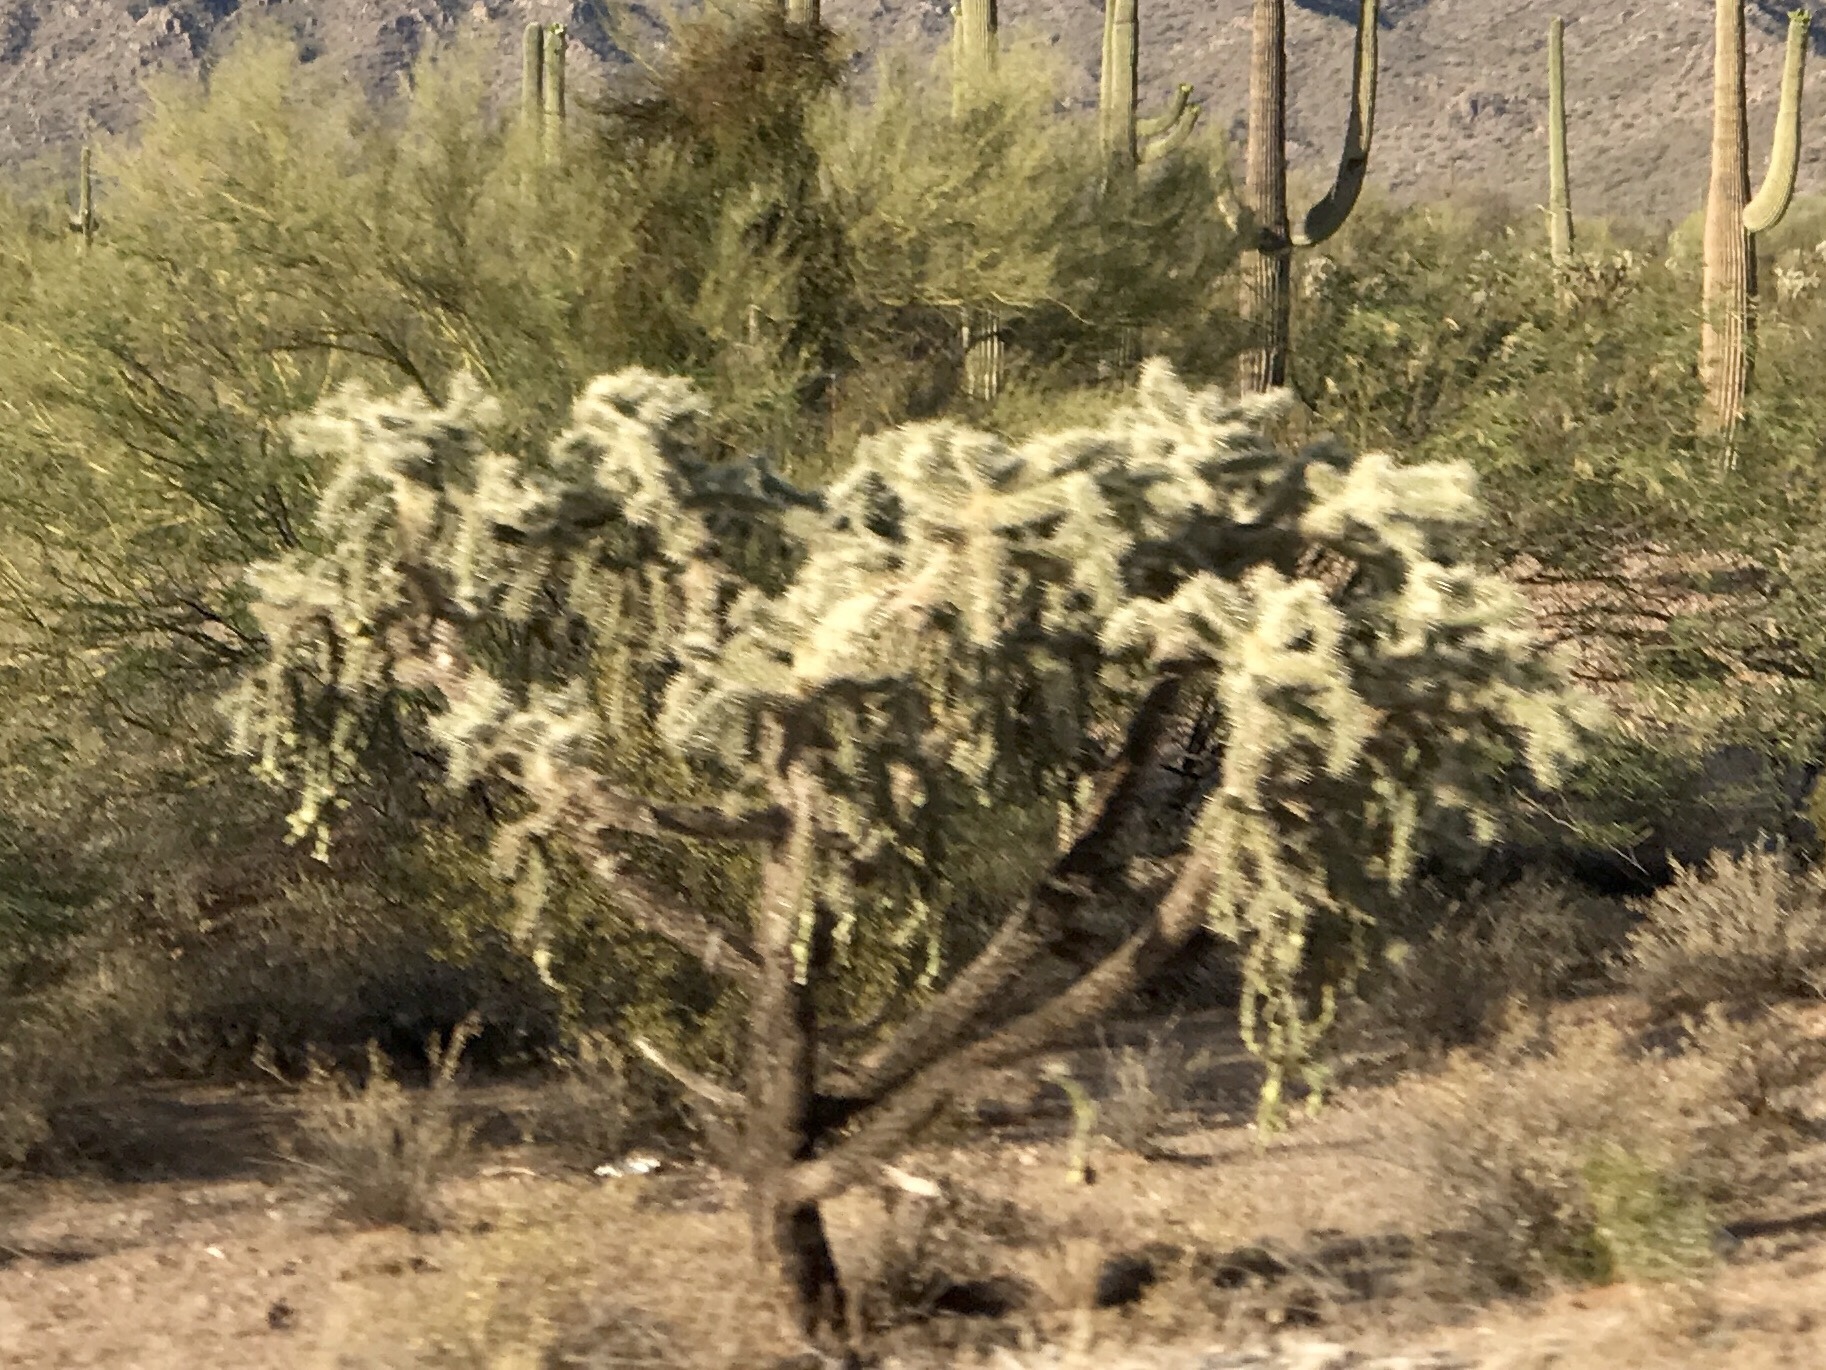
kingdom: Plantae
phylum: Tracheophyta
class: Magnoliopsida
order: Caryophyllales
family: Cactaceae
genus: Cylindropuntia
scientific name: Cylindropuntia fulgida
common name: Jumping cholla
